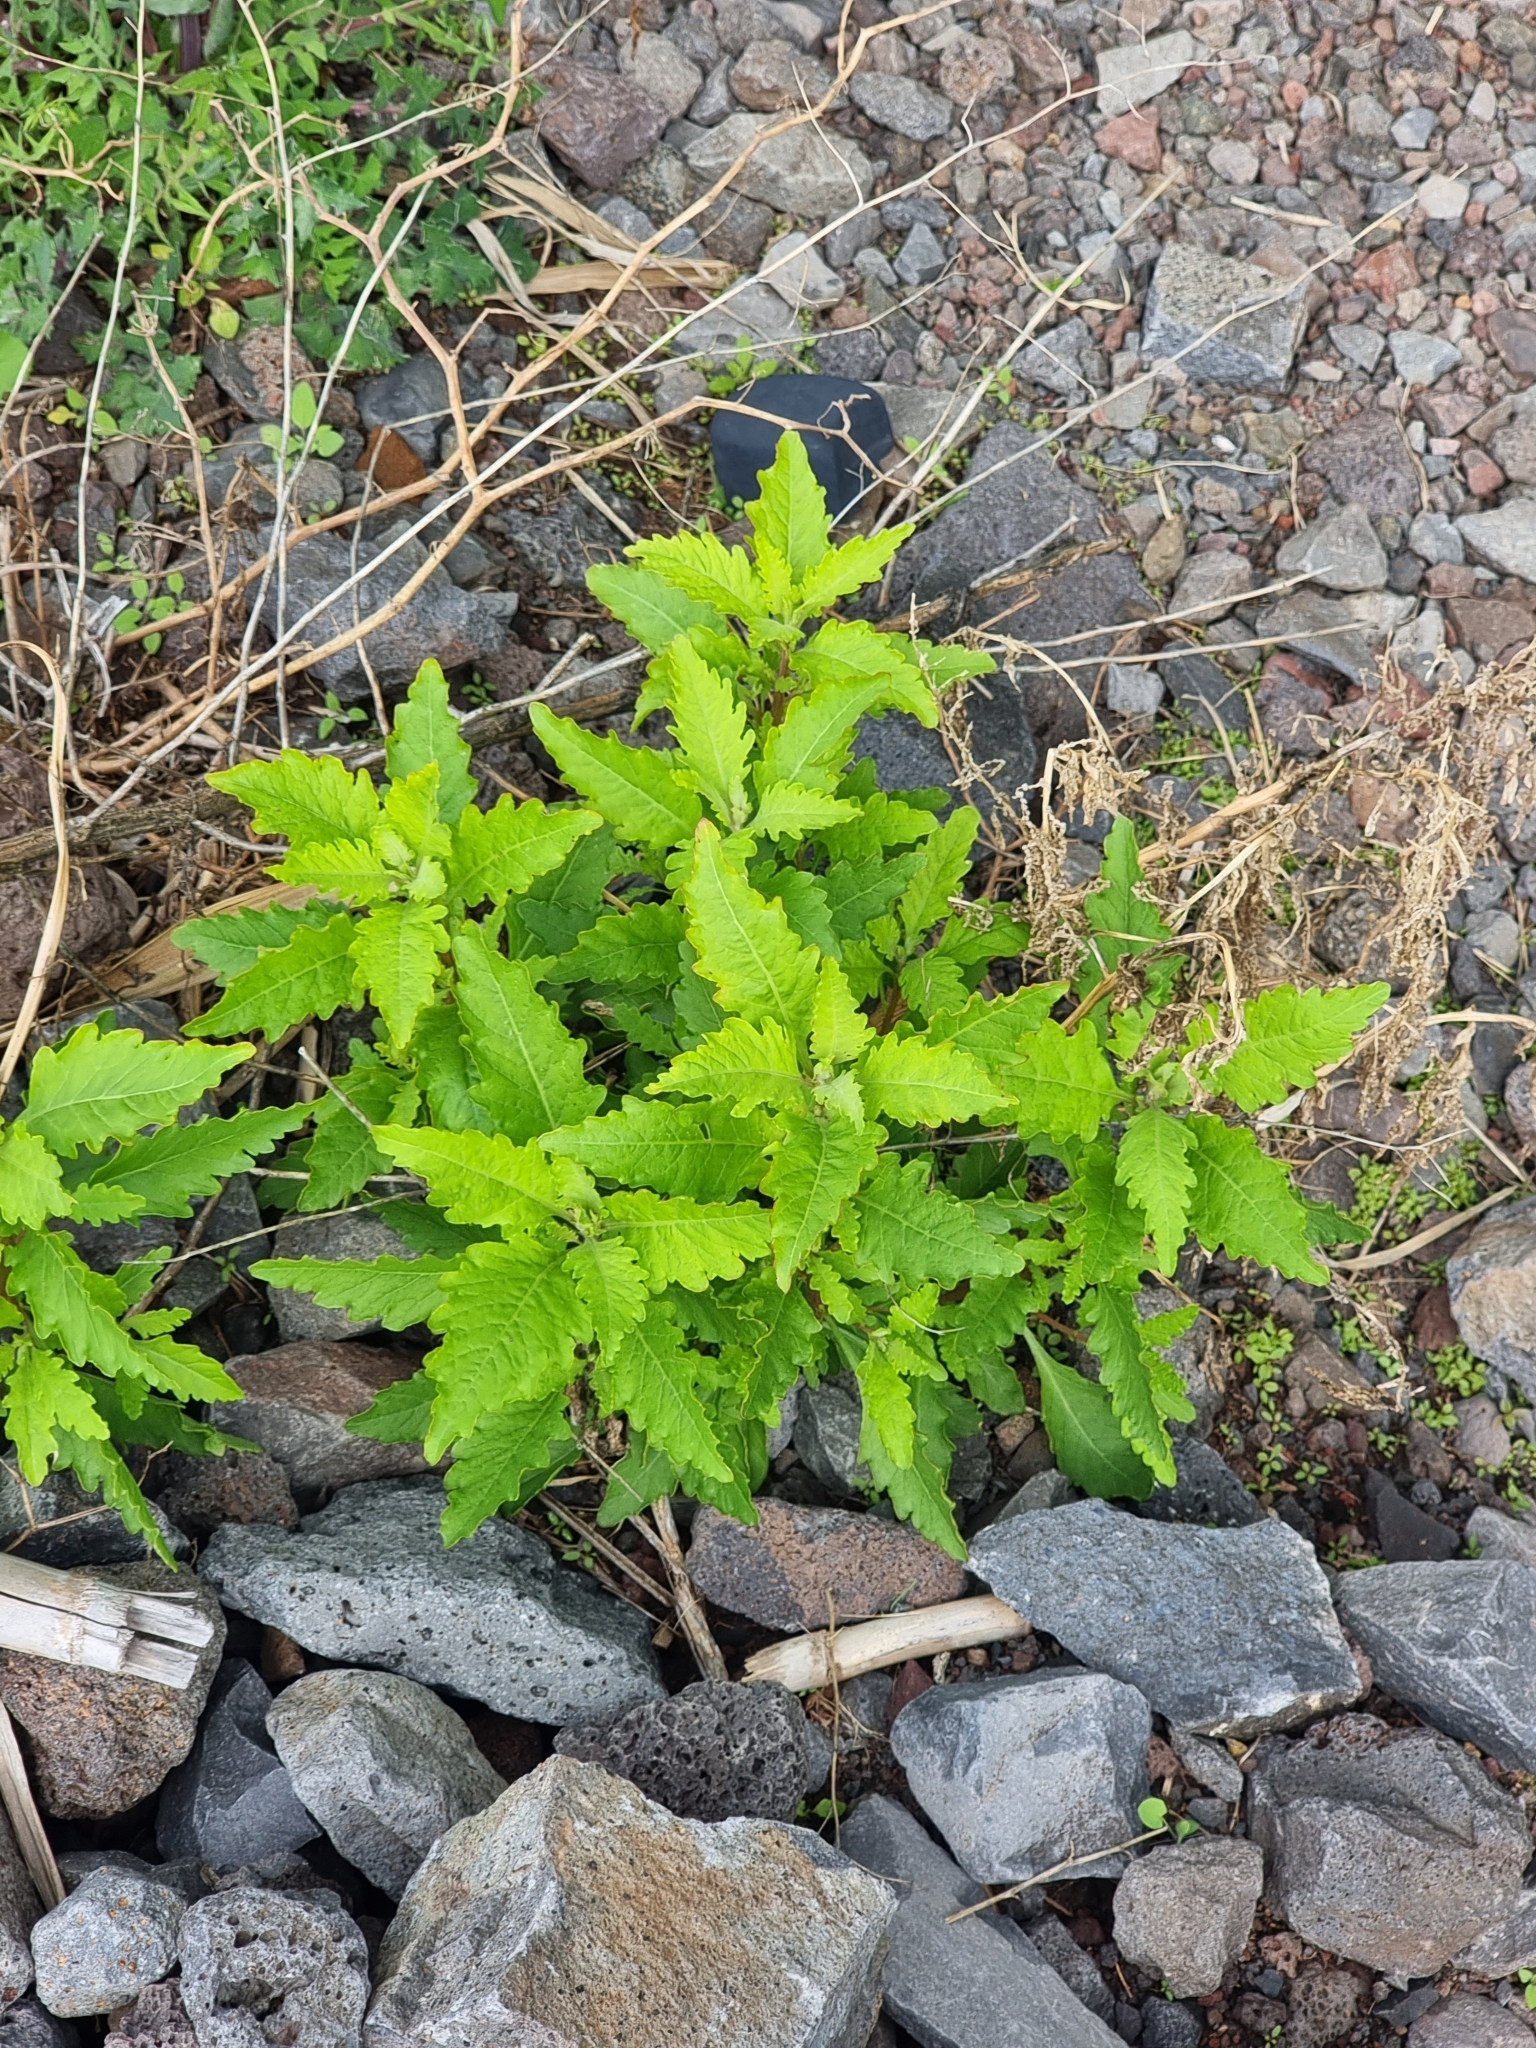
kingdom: Plantae
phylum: Tracheophyta
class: Magnoliopsida
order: Caryophyllales
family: Amaranthaceae
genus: Dysphania
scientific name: Dysphania ambrosioides
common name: Wormseed
